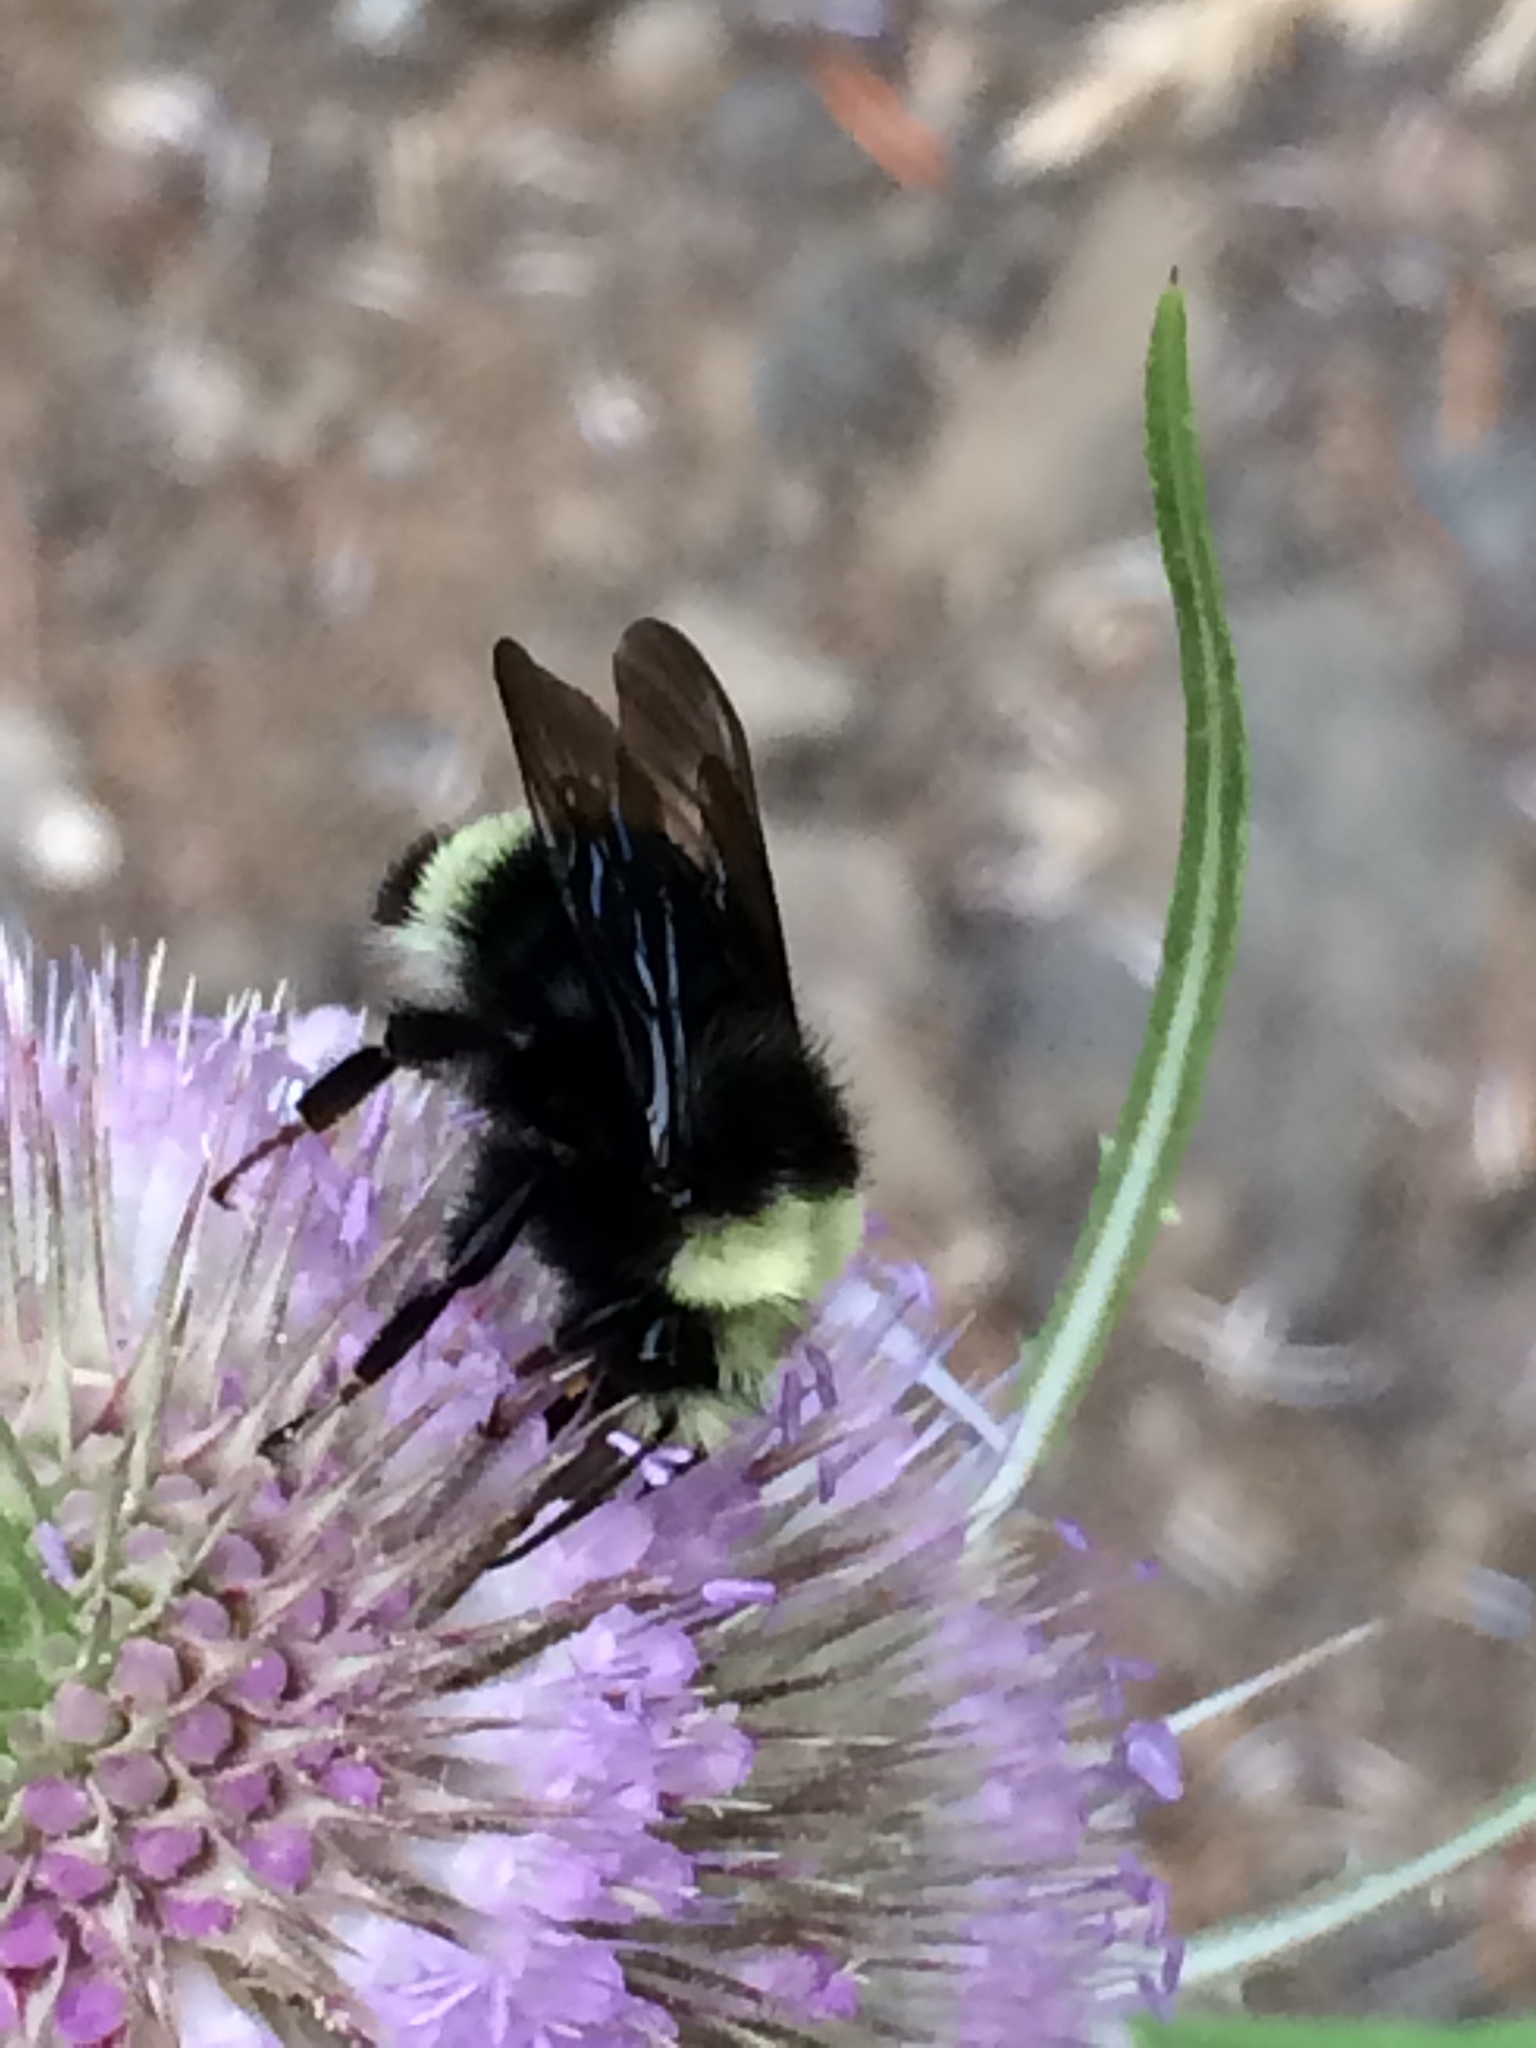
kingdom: Animalia
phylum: Arthropoda
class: Insecta
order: Hymenoptera
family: Apidae
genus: Bombus
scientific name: Bombus vosnesenskii
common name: Vosnesensky bumble bee
